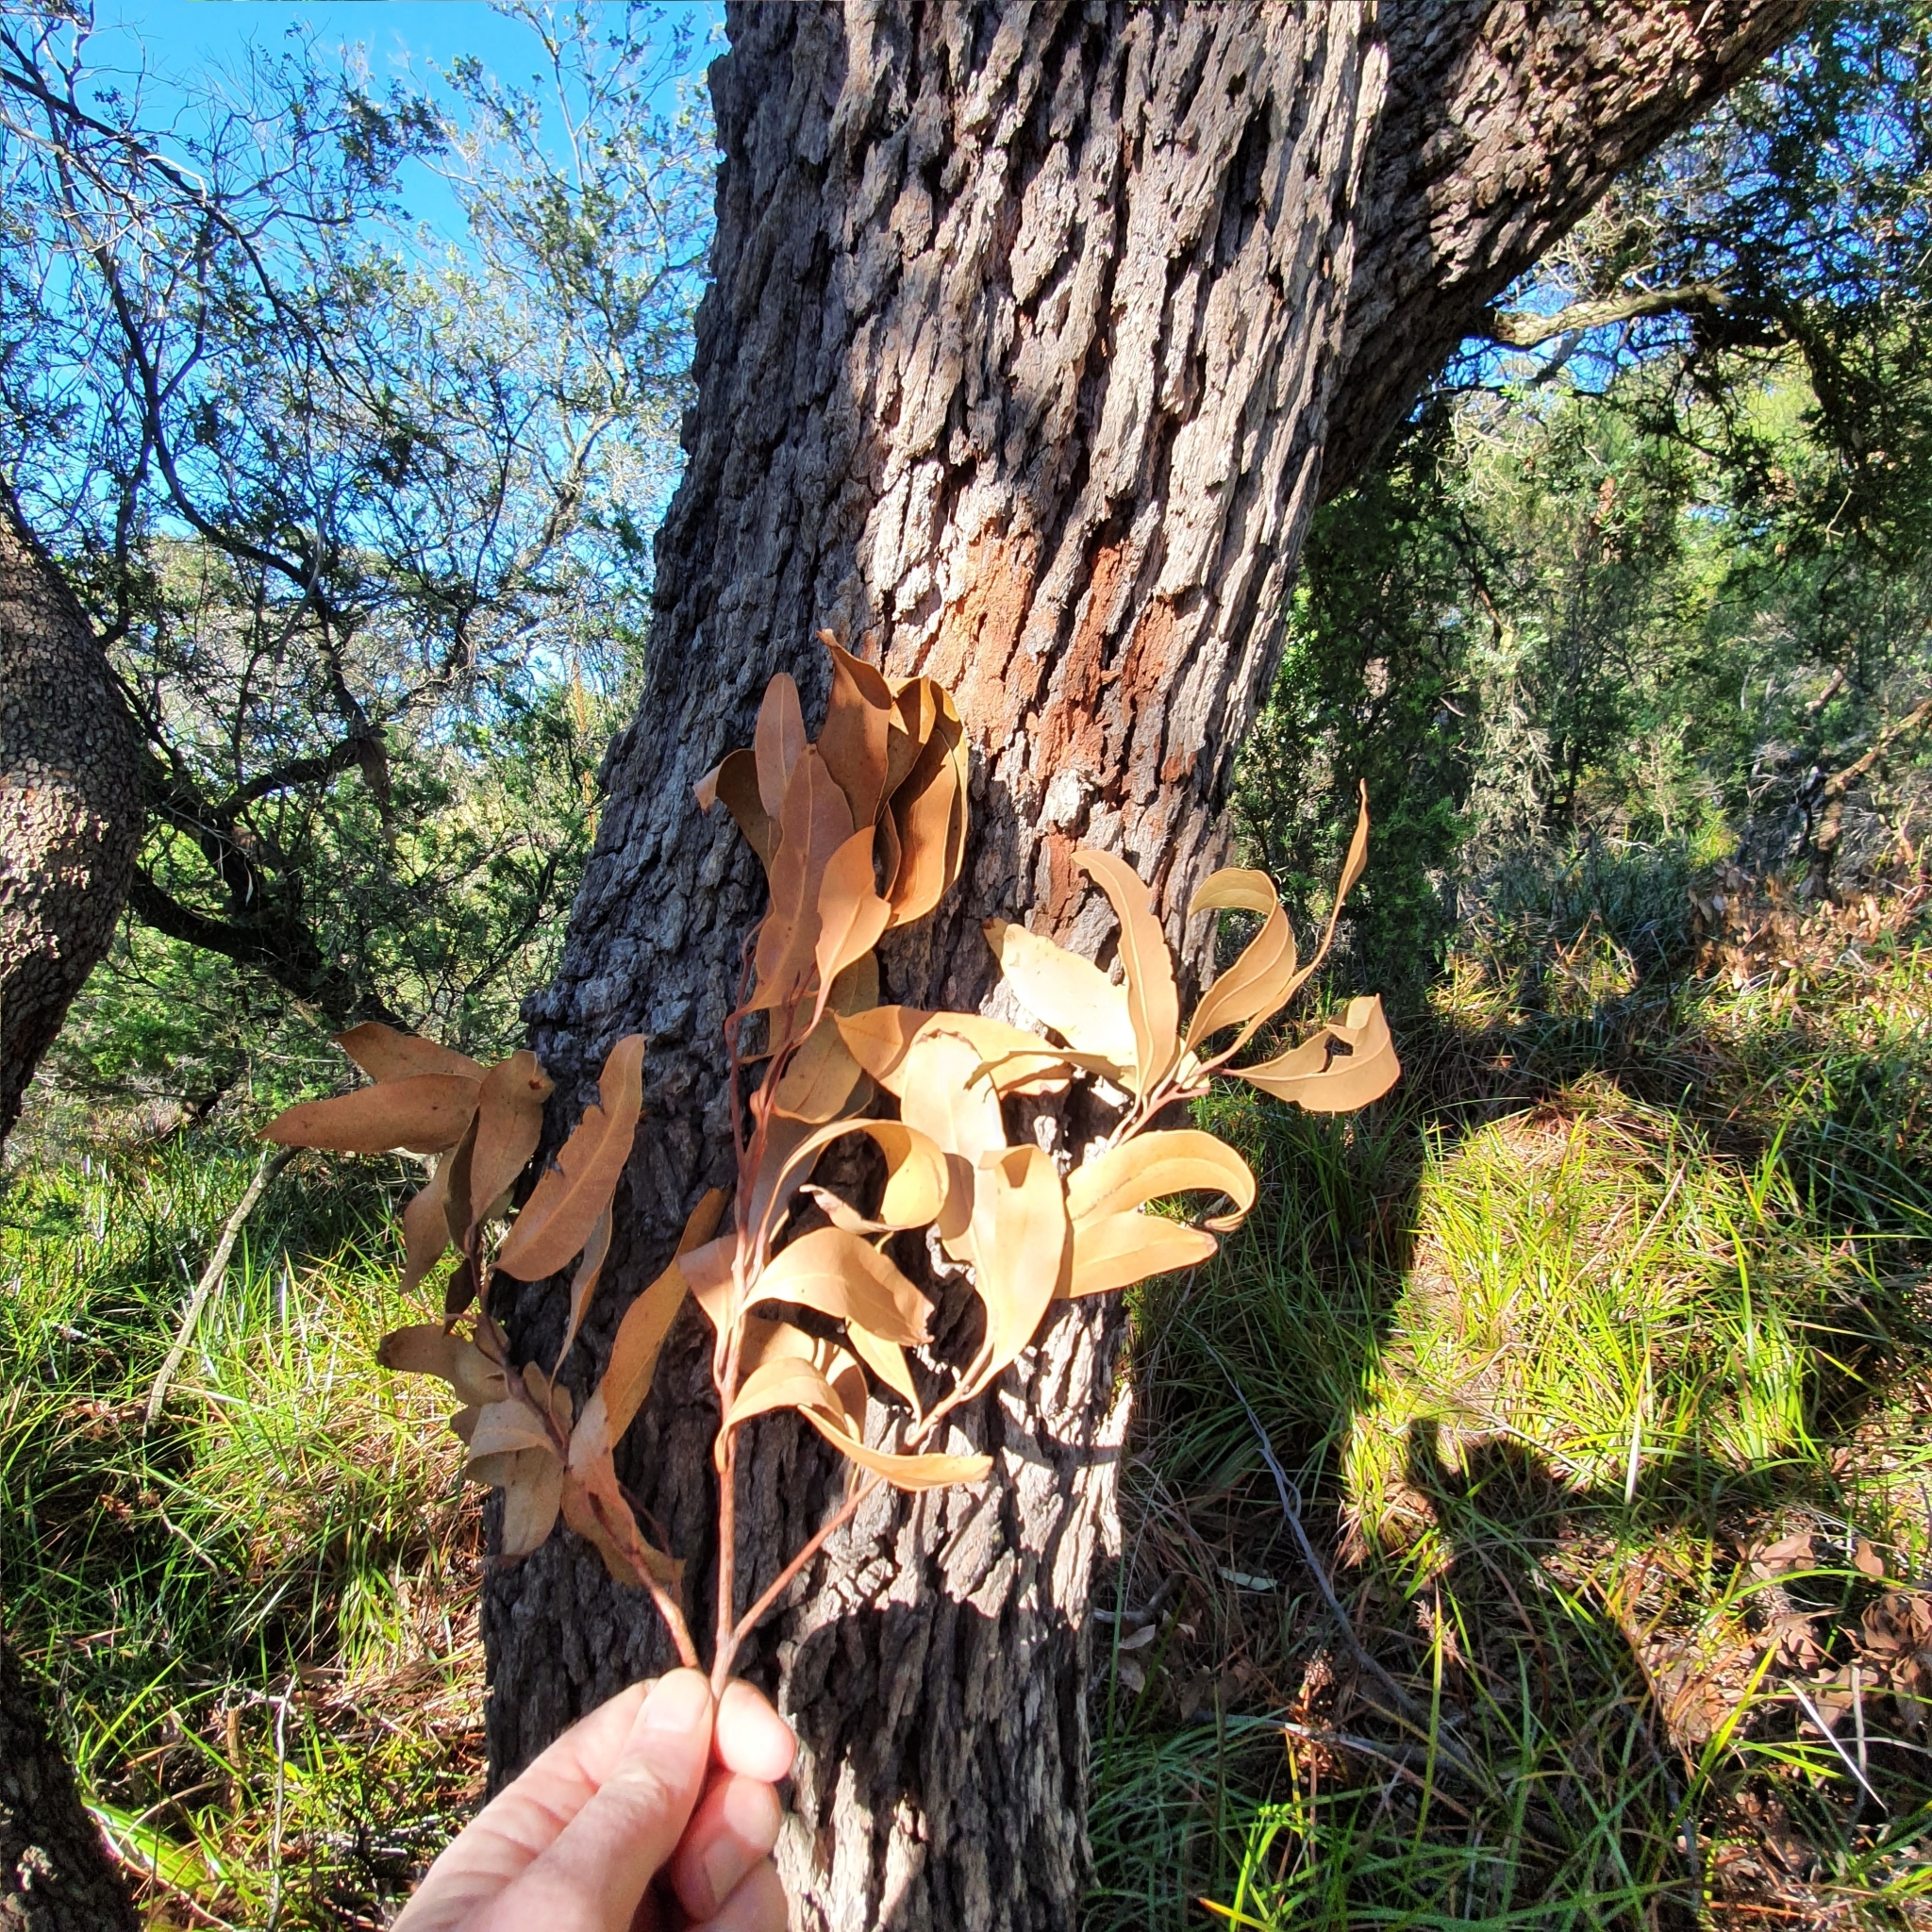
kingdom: Plantae
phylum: Tracheophyta
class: Magnoliopsida
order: Myrtales
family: Myrtaceae
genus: Corymbia
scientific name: Corymbia gummifera
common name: Red bloodwood
